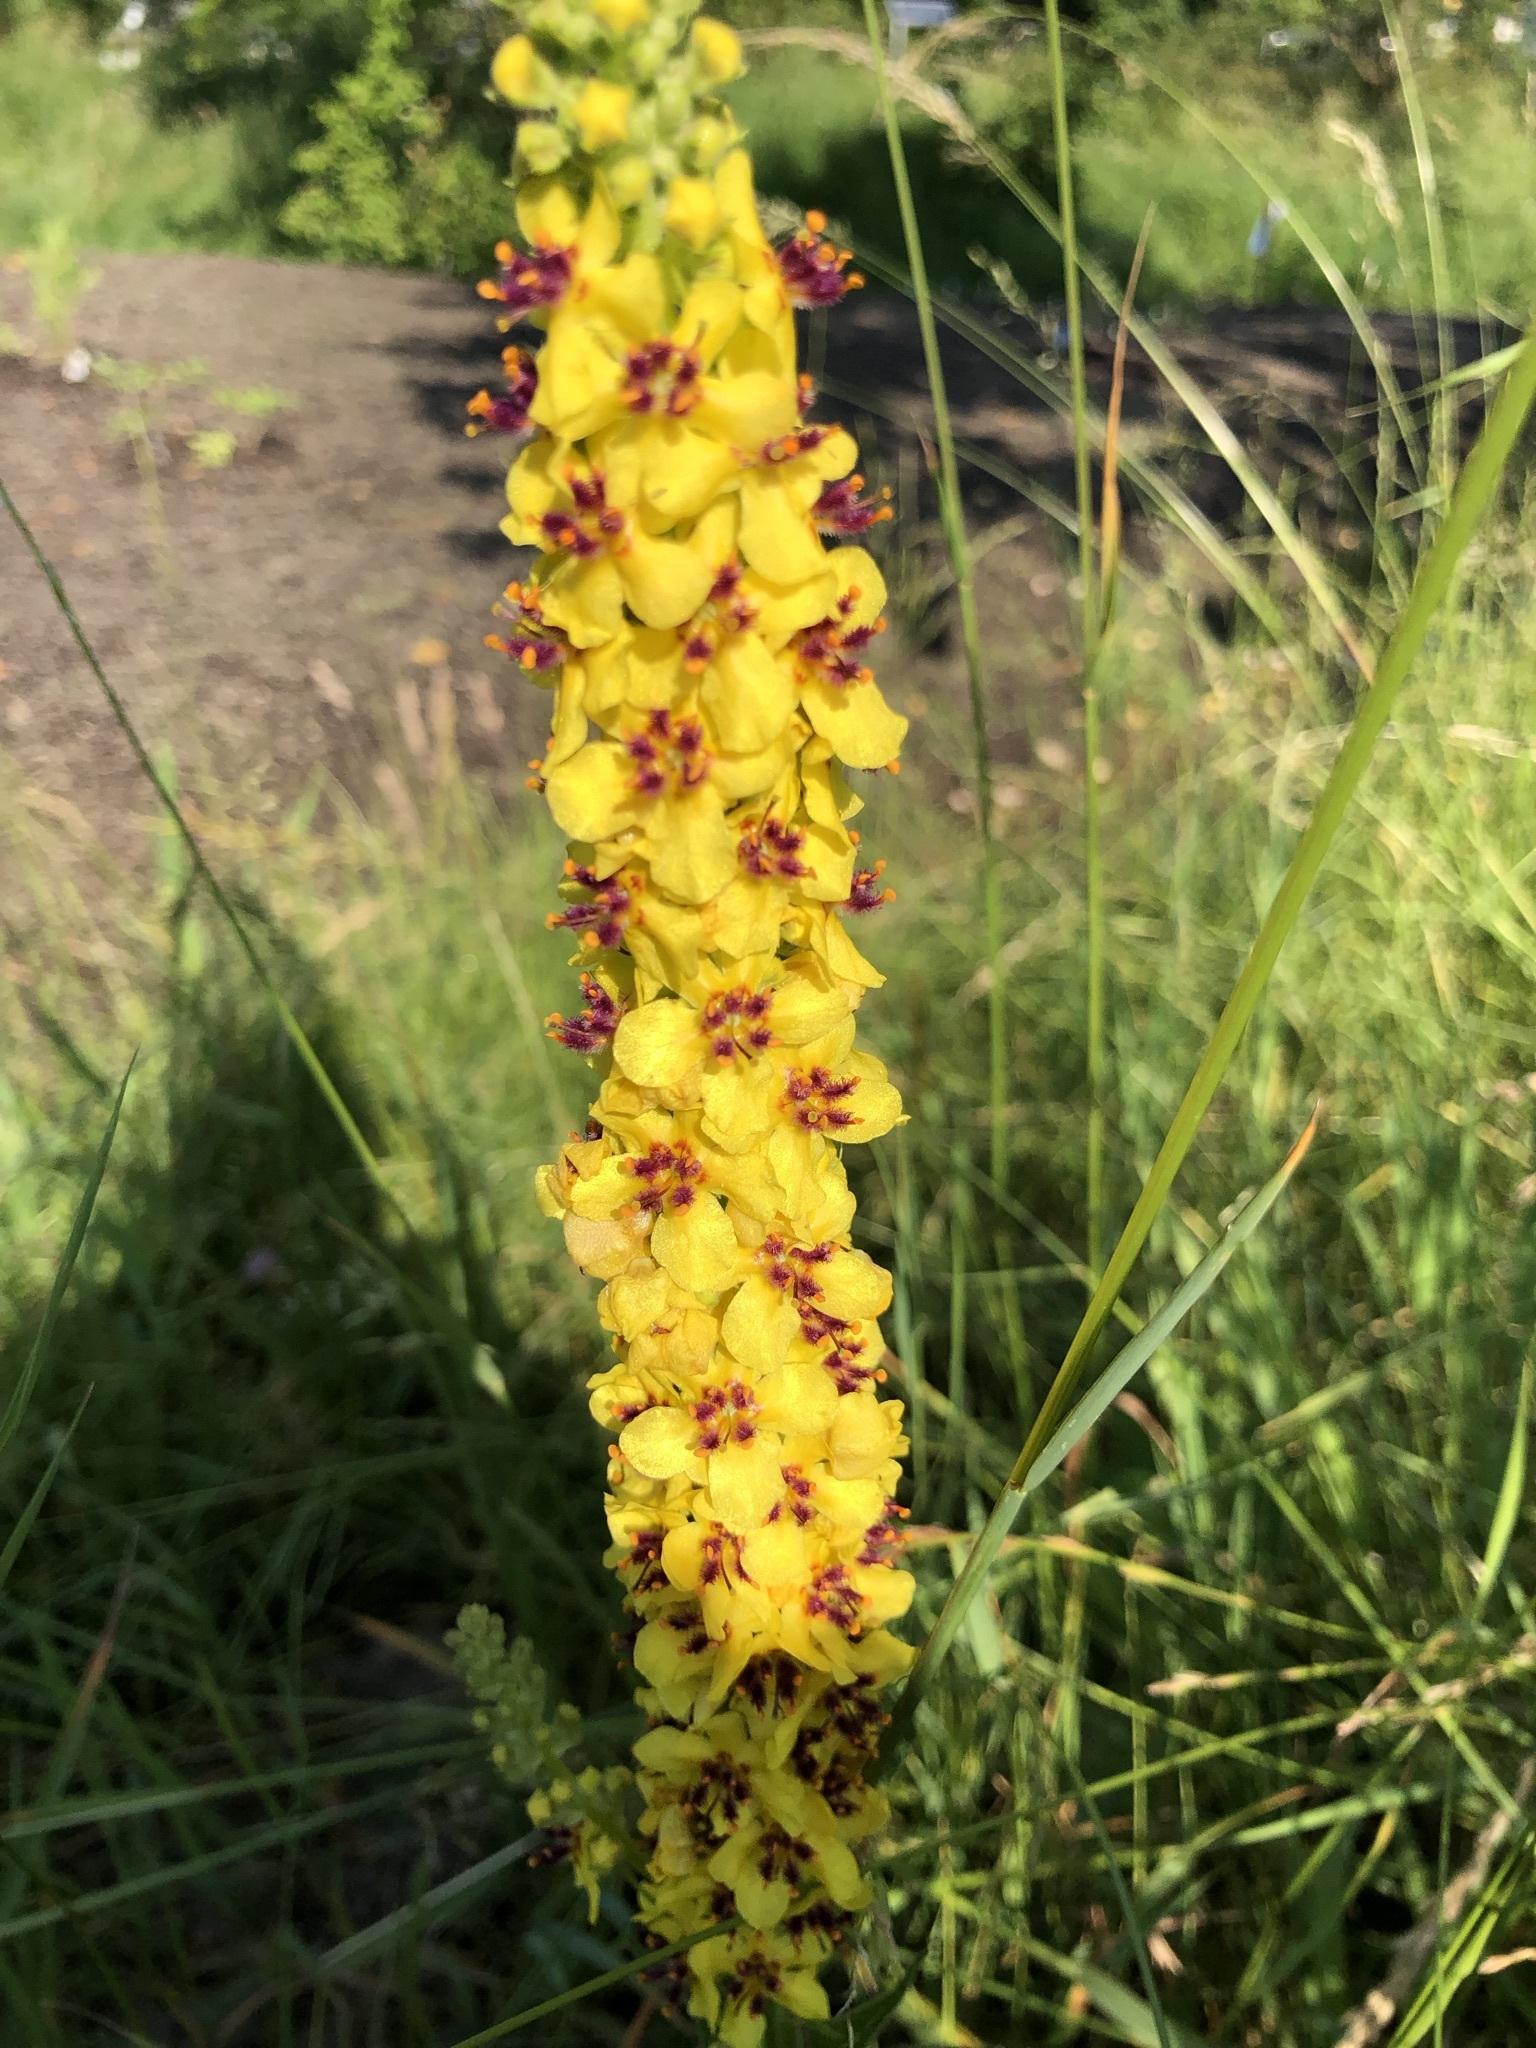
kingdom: Plantae
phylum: Tracheophyta
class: Magnoliopsida
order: Lamiales
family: Scrophulariaceae
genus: Verbascum
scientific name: Verbascum nigrum
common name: Dark mullein
